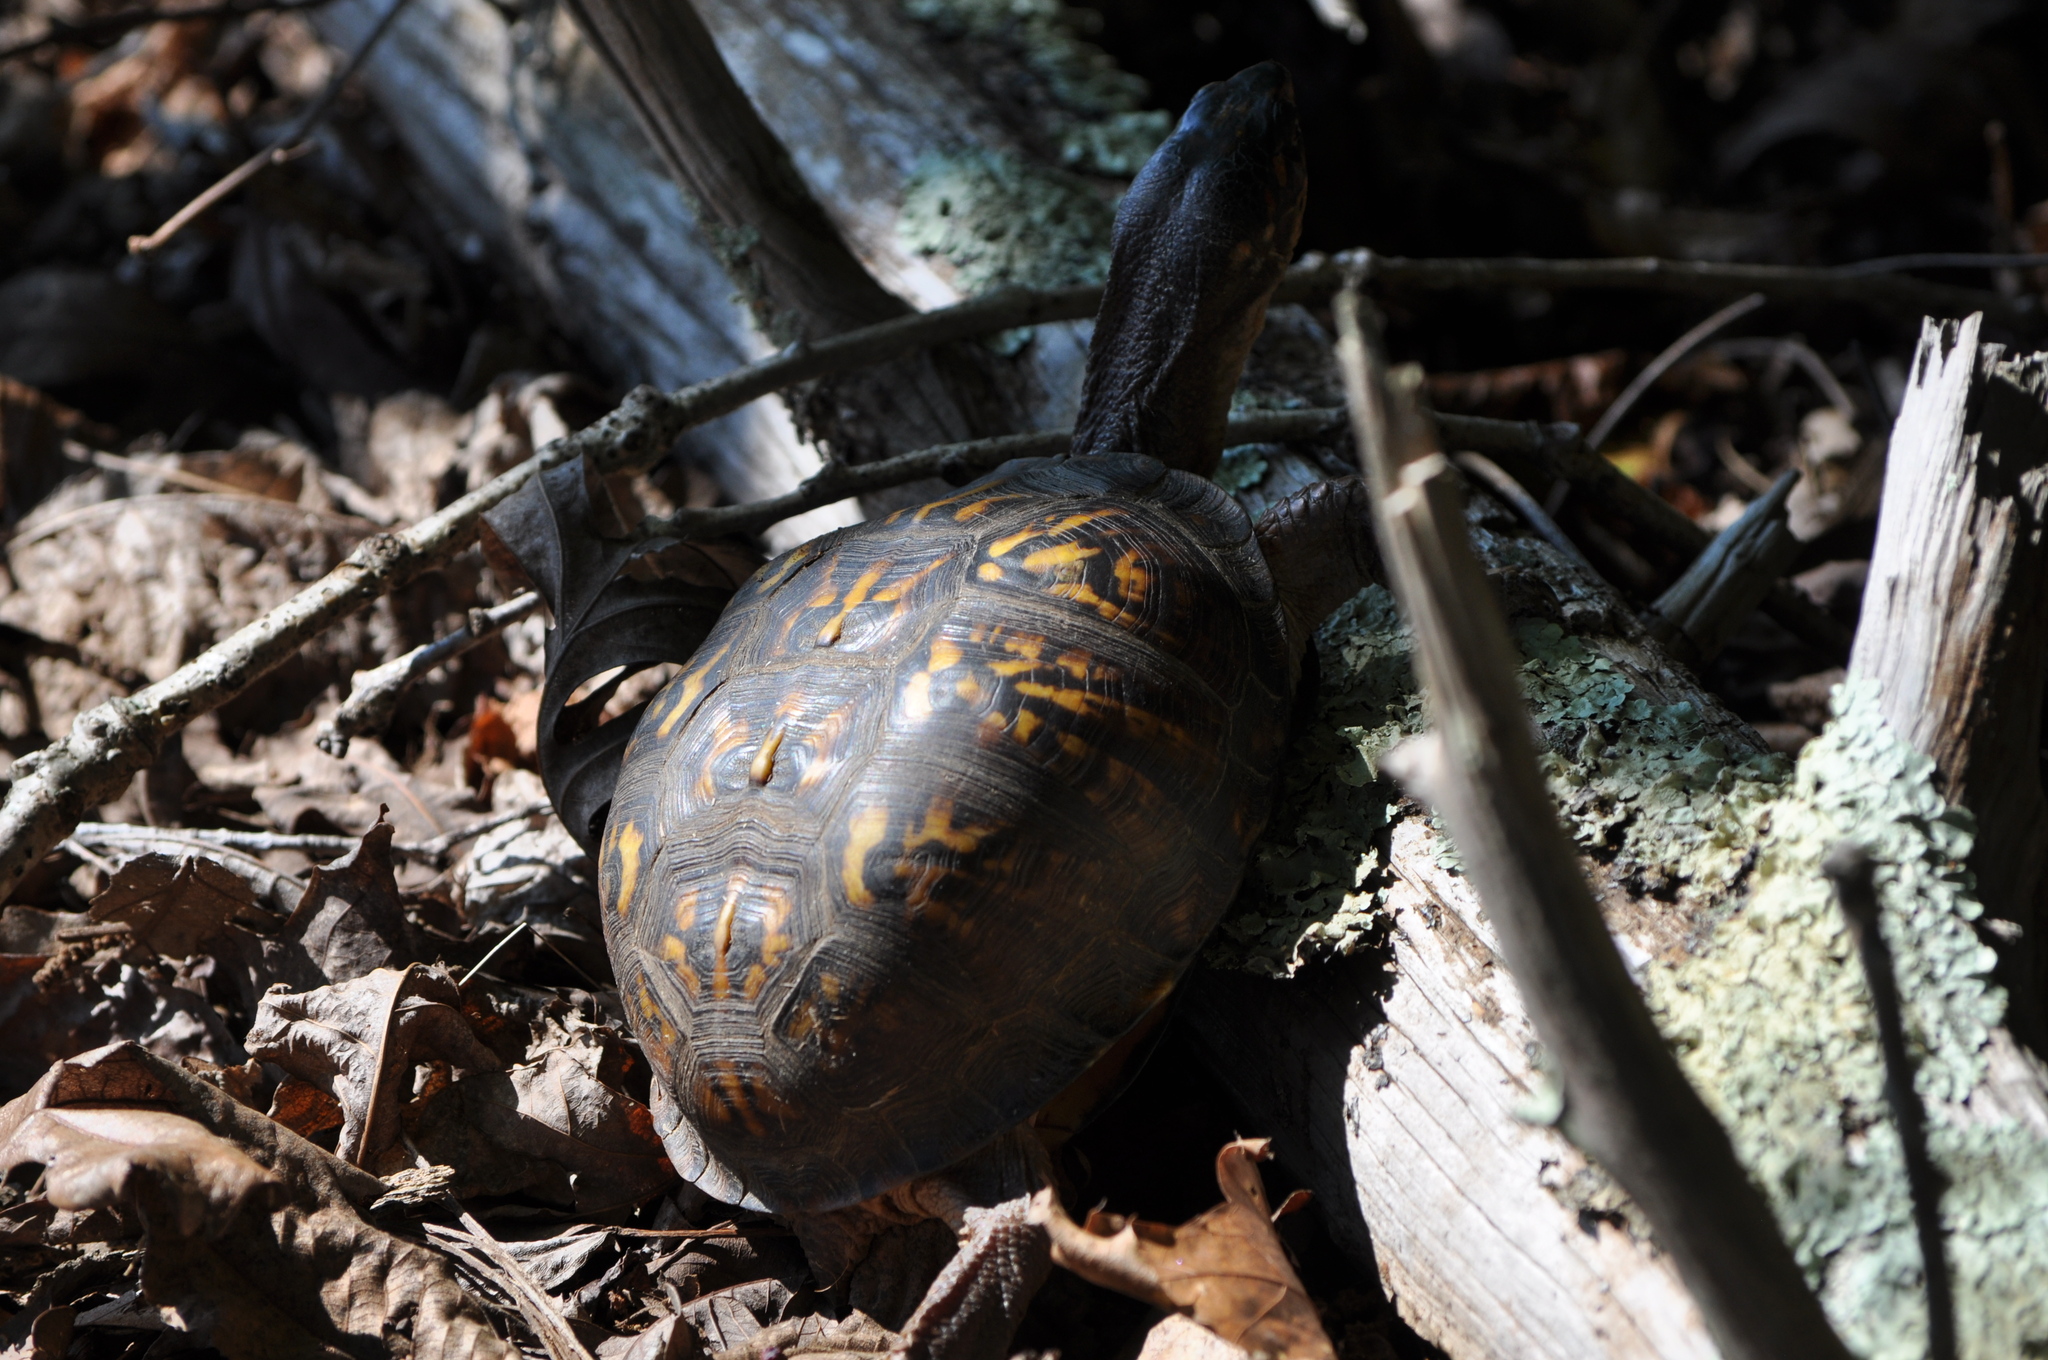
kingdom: Animalia
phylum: Chordata
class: Testudines
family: Emydidae
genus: Terrapene
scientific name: Terrapene carolina
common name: Common box turtle
